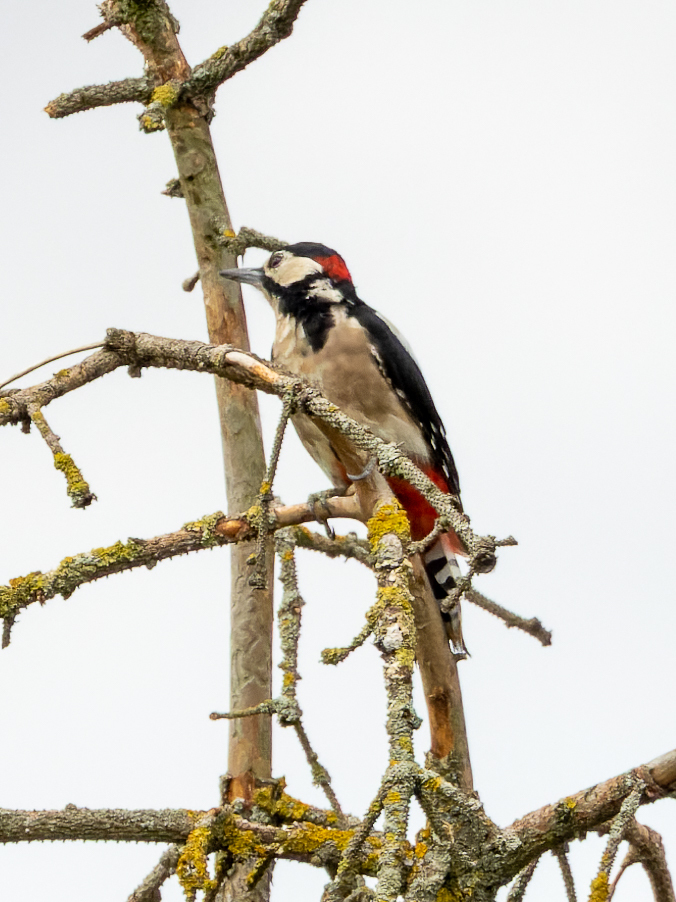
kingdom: Animalia
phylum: Chordata
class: Aves
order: Piciformes
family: Picidae
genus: Dendrocopos
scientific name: Dendrocopos major
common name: Great spotted woodpecker
